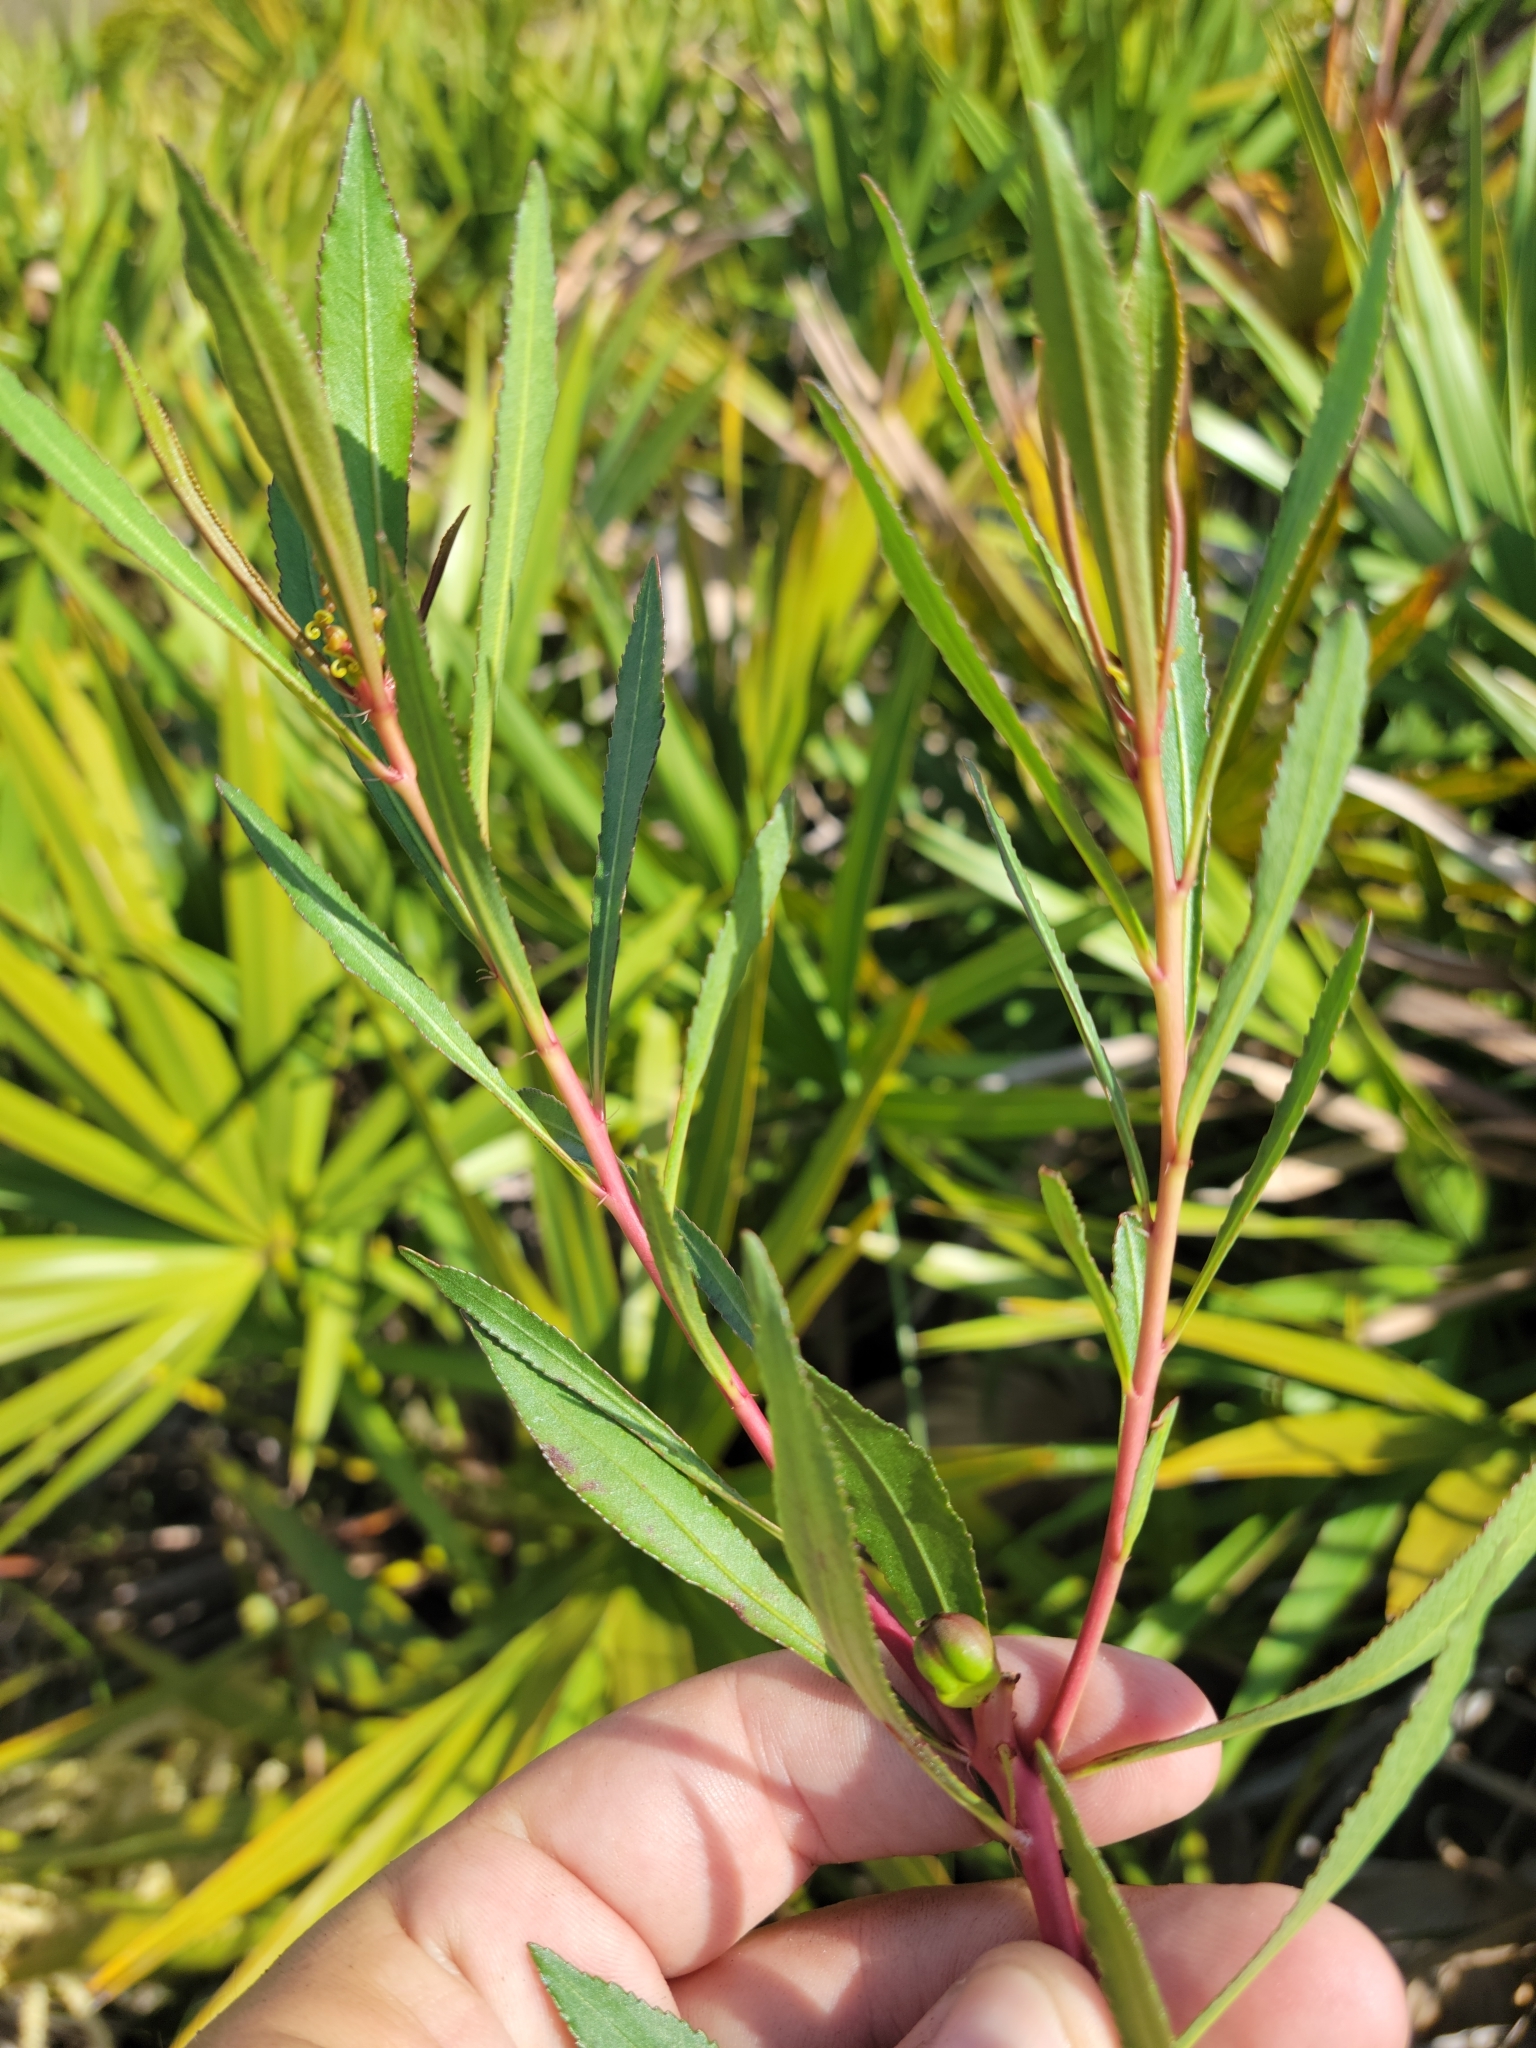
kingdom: Plantae
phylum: Tracheophyta
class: Magnoliopsida
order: Malpighiales
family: Euphorbiaceae
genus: Stillingia
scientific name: Stillingia sylvatica
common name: Queen's-delight
